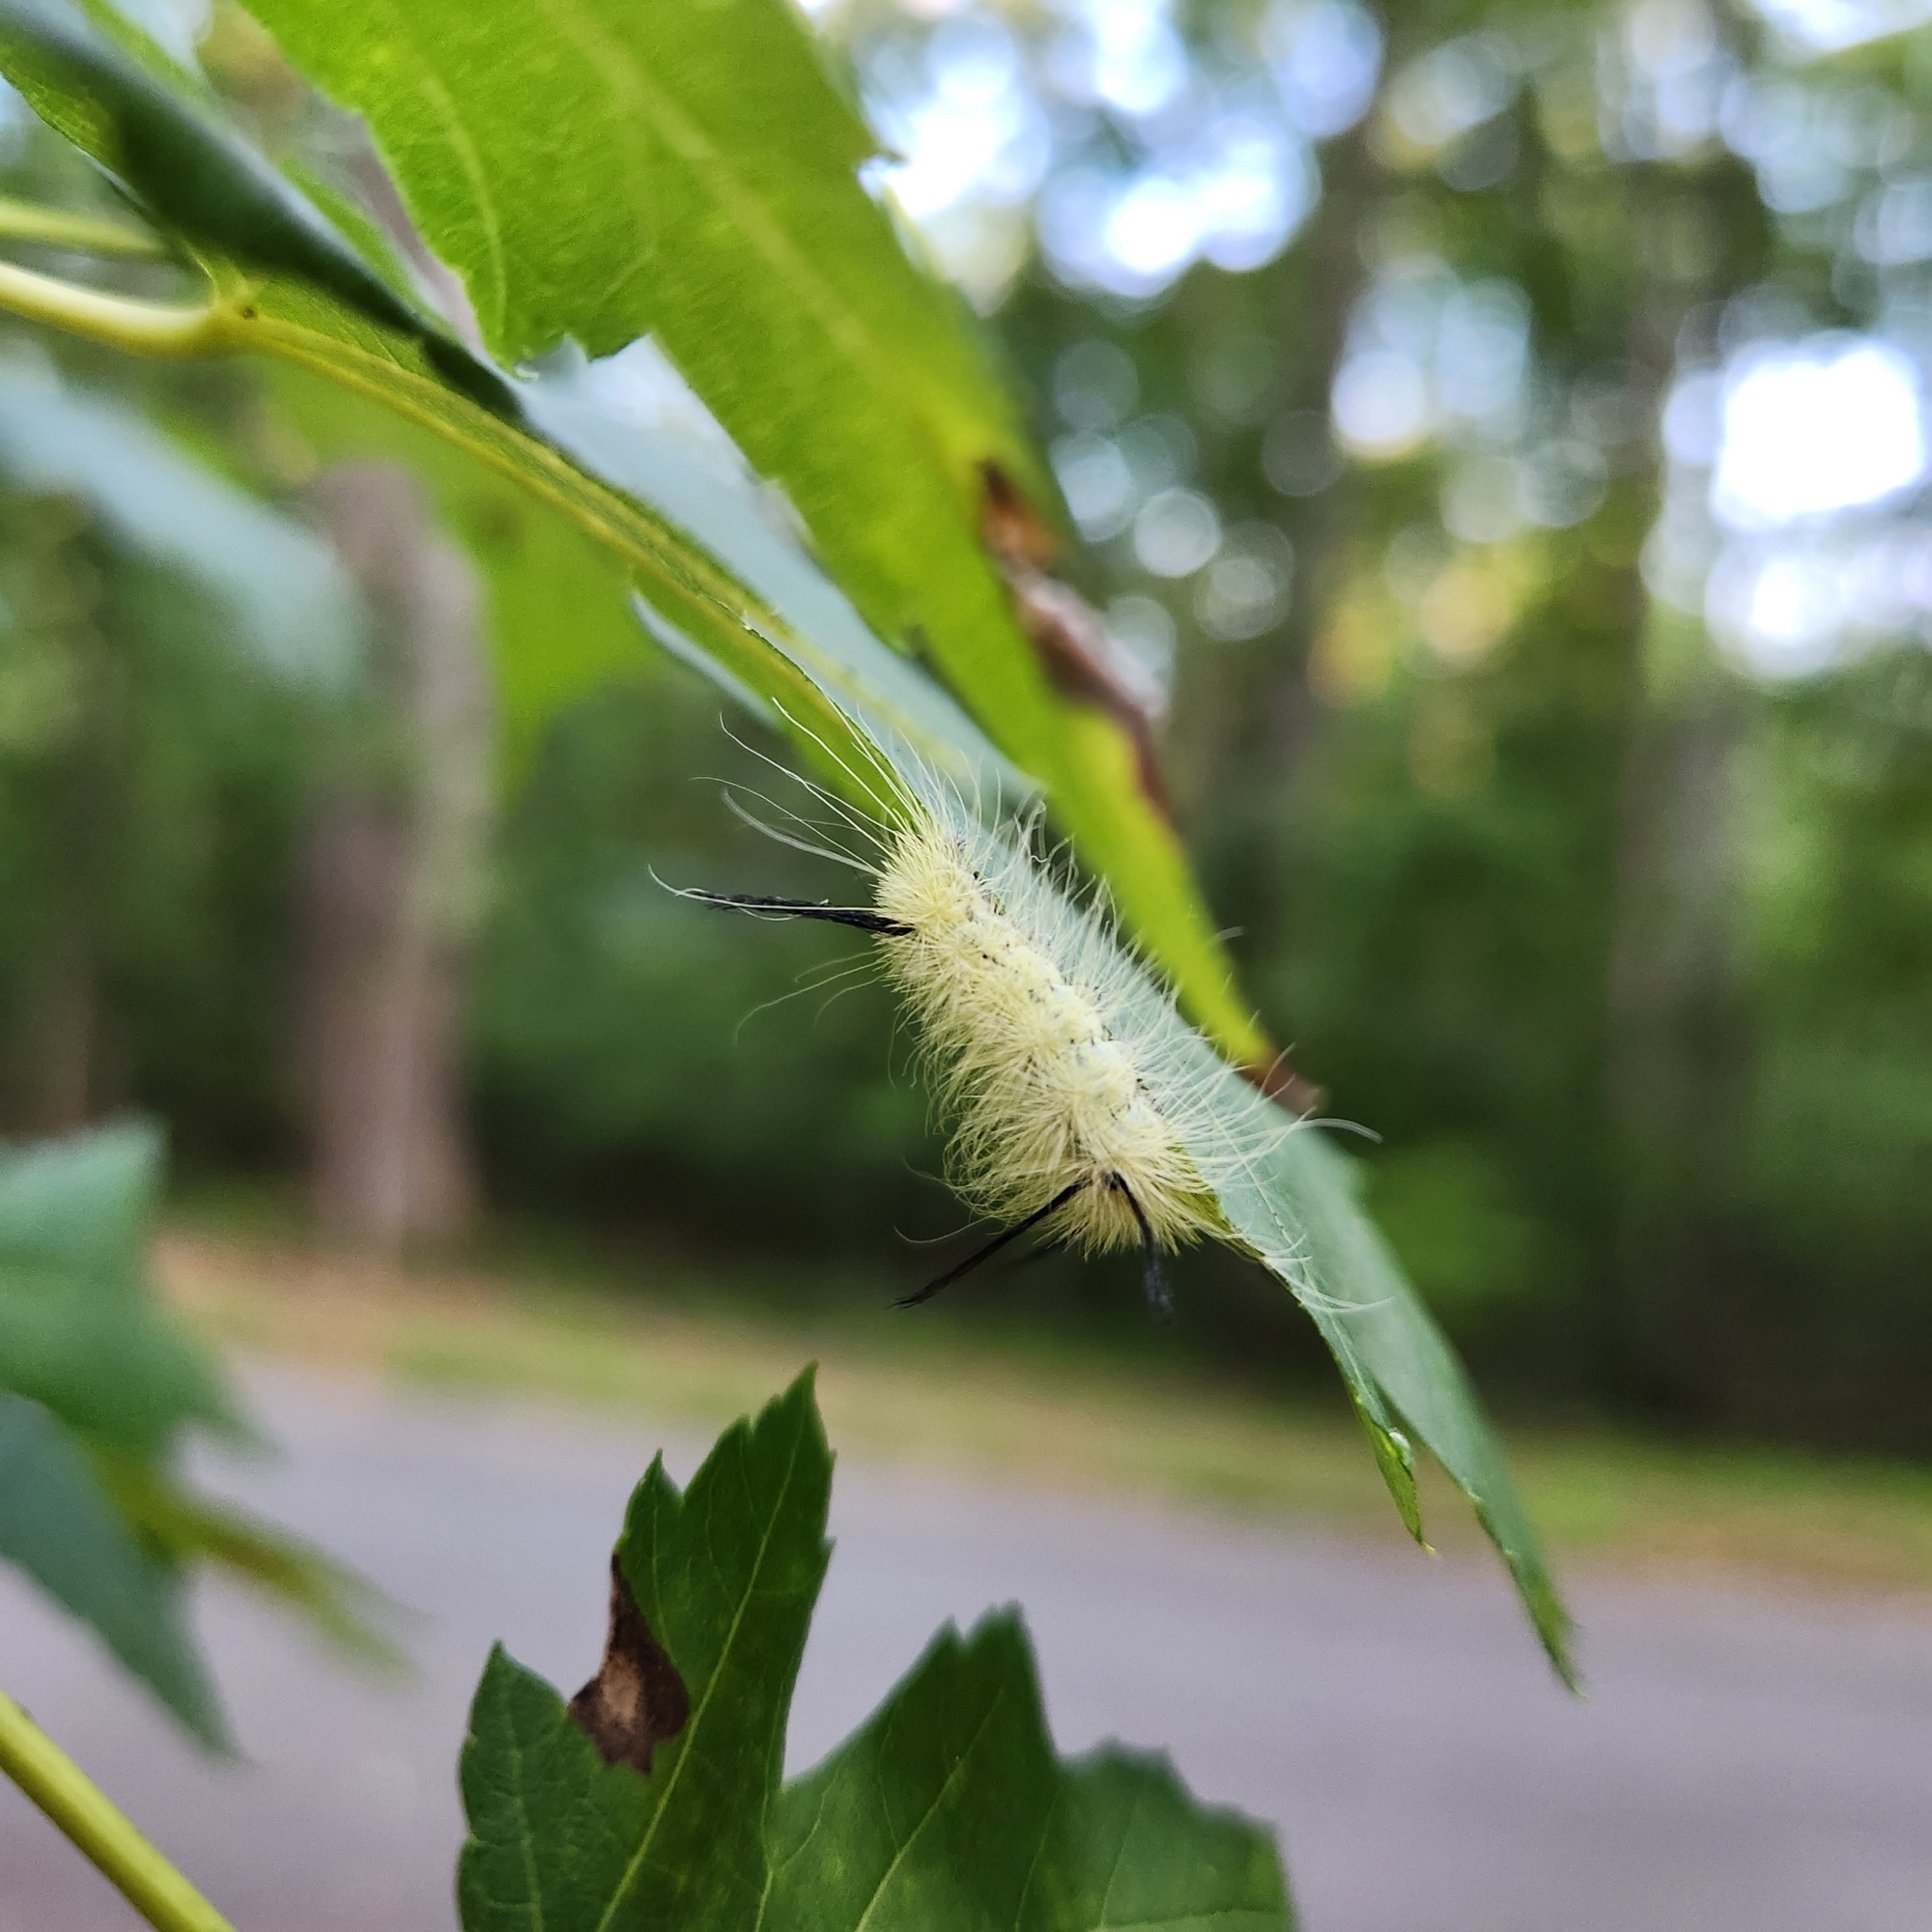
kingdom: Animalia
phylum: Arthropoda
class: Insecta
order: Lepidoptera
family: Noctuidae
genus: Acronicta
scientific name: Acronicta americana
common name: American dagger
